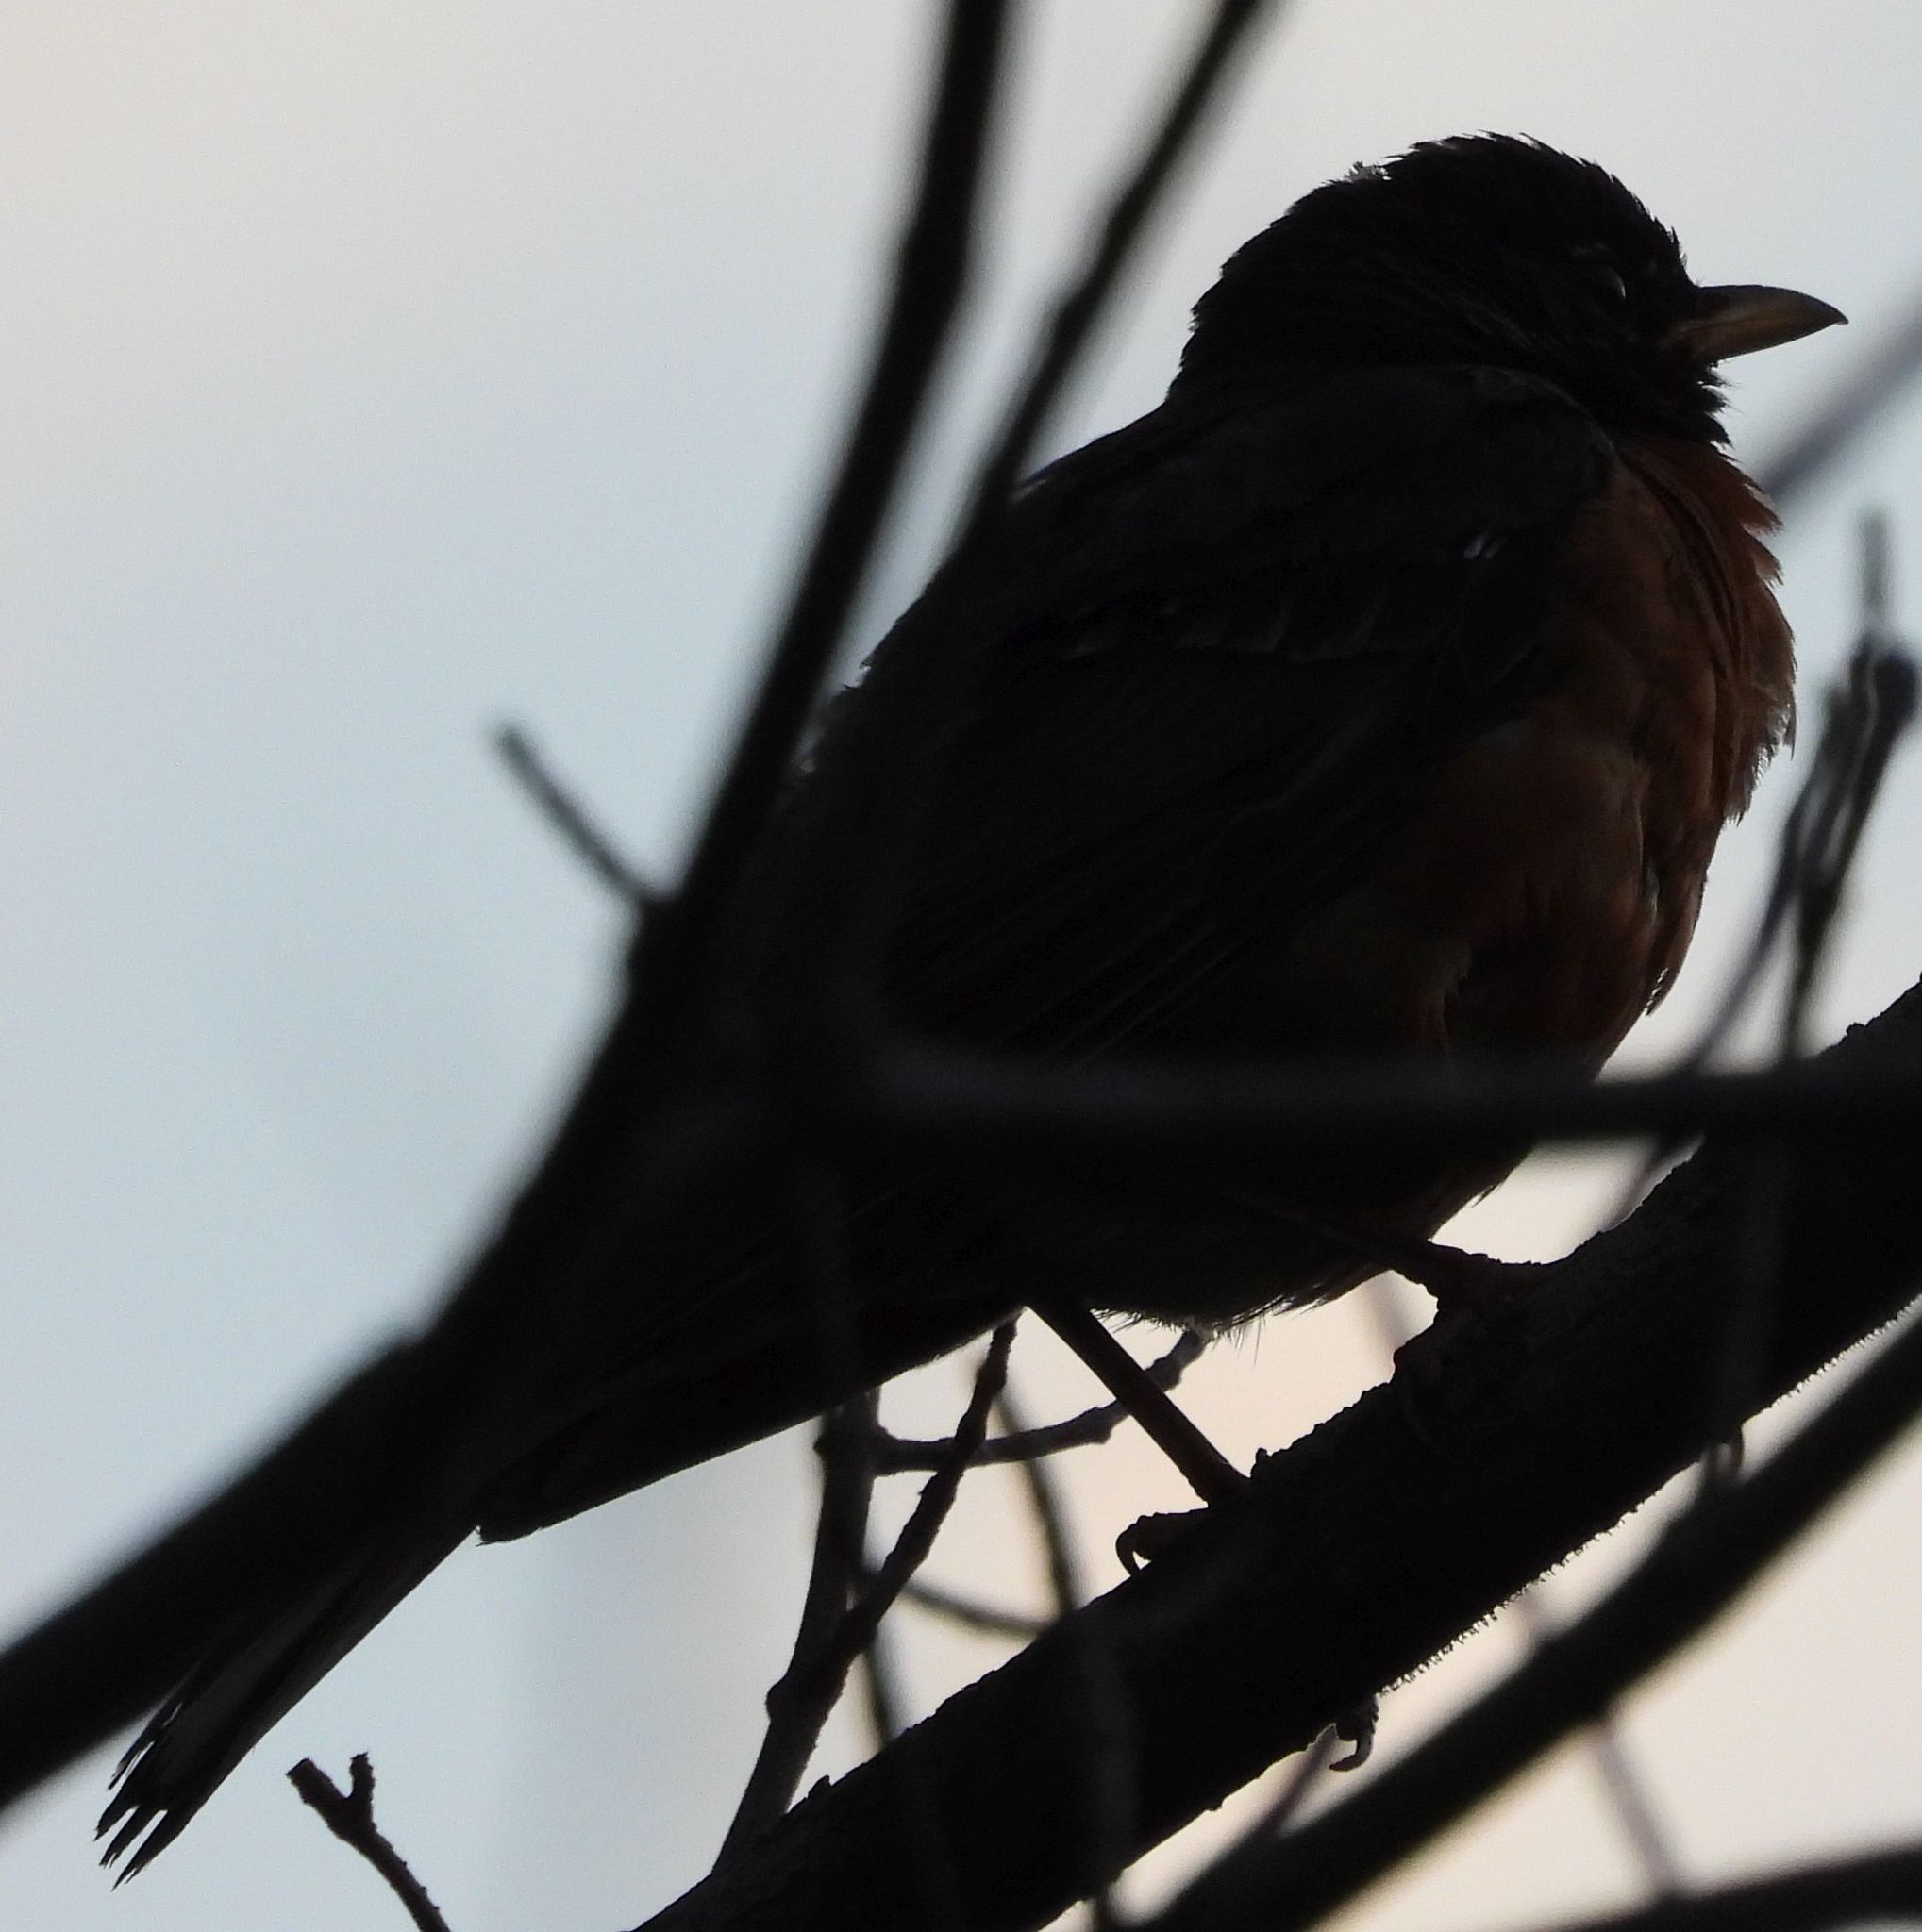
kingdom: Animalia
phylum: Chordata
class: Aves
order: Passeriformes
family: Turdidae
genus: Turdus
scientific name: Turdus migratorius
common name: American robin
